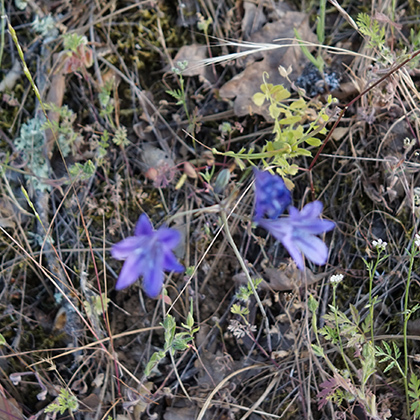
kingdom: Plantae
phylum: Tracheophyta
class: Liliopsida
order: Asparagales
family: Asparagaceae
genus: Triteleia
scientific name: Triteleia laxa
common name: Triplet-lily
